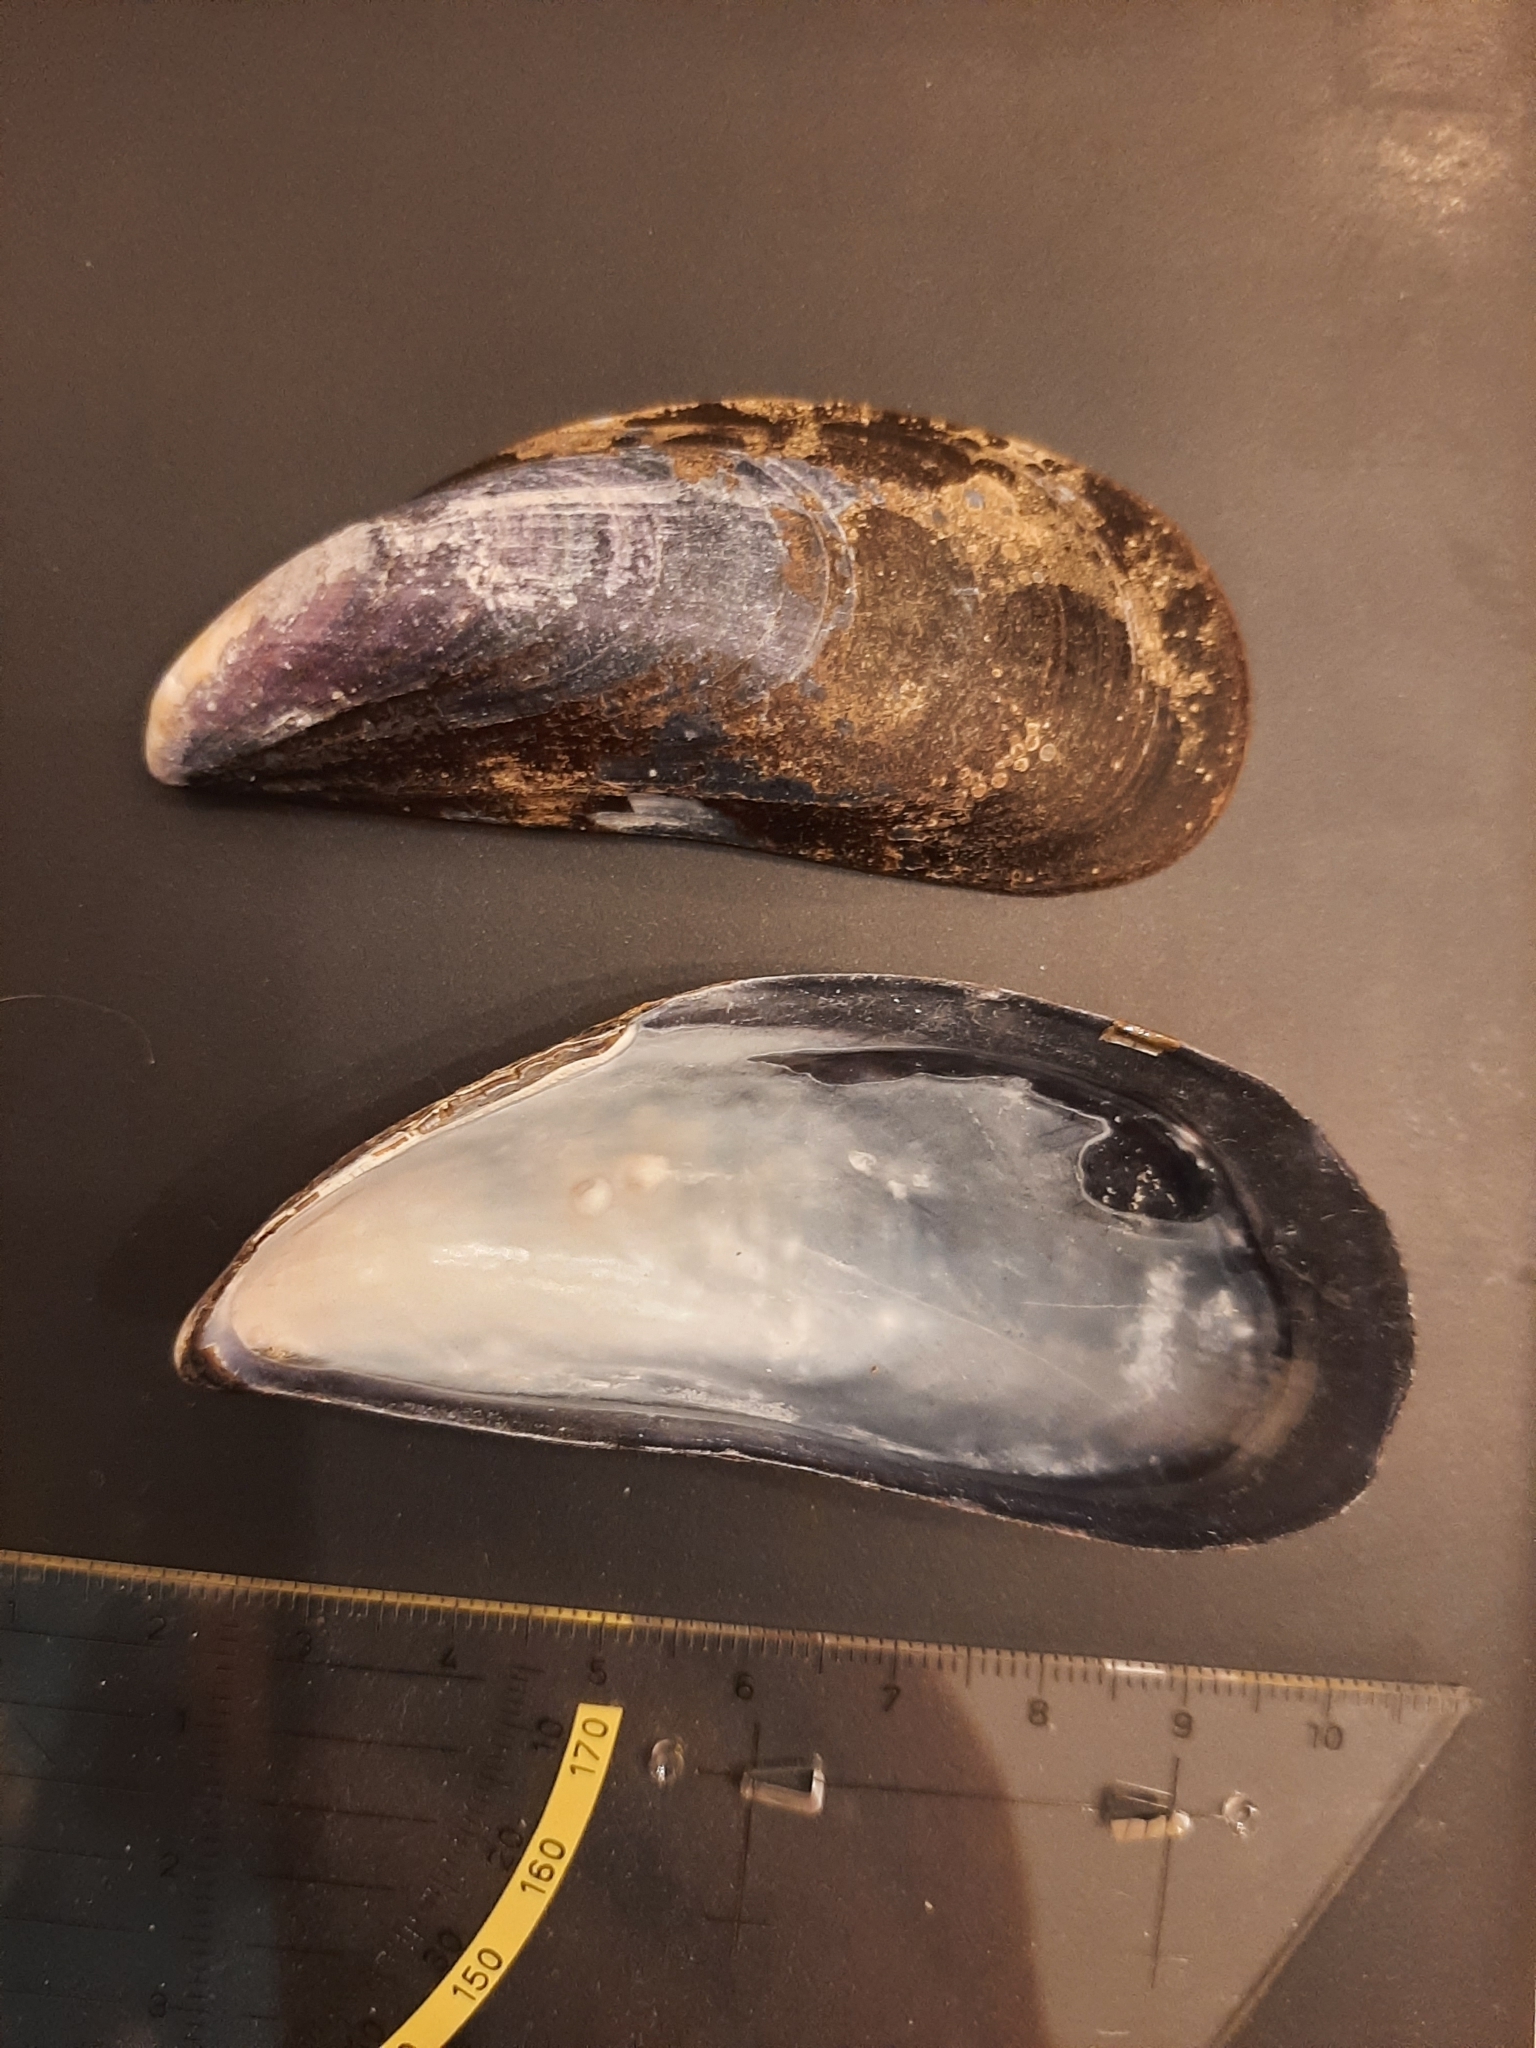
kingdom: Animalia
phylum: Mollusca
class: Bivalvia
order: Mytilida
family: Mytilidae
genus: Mytilus
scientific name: Mytilus
